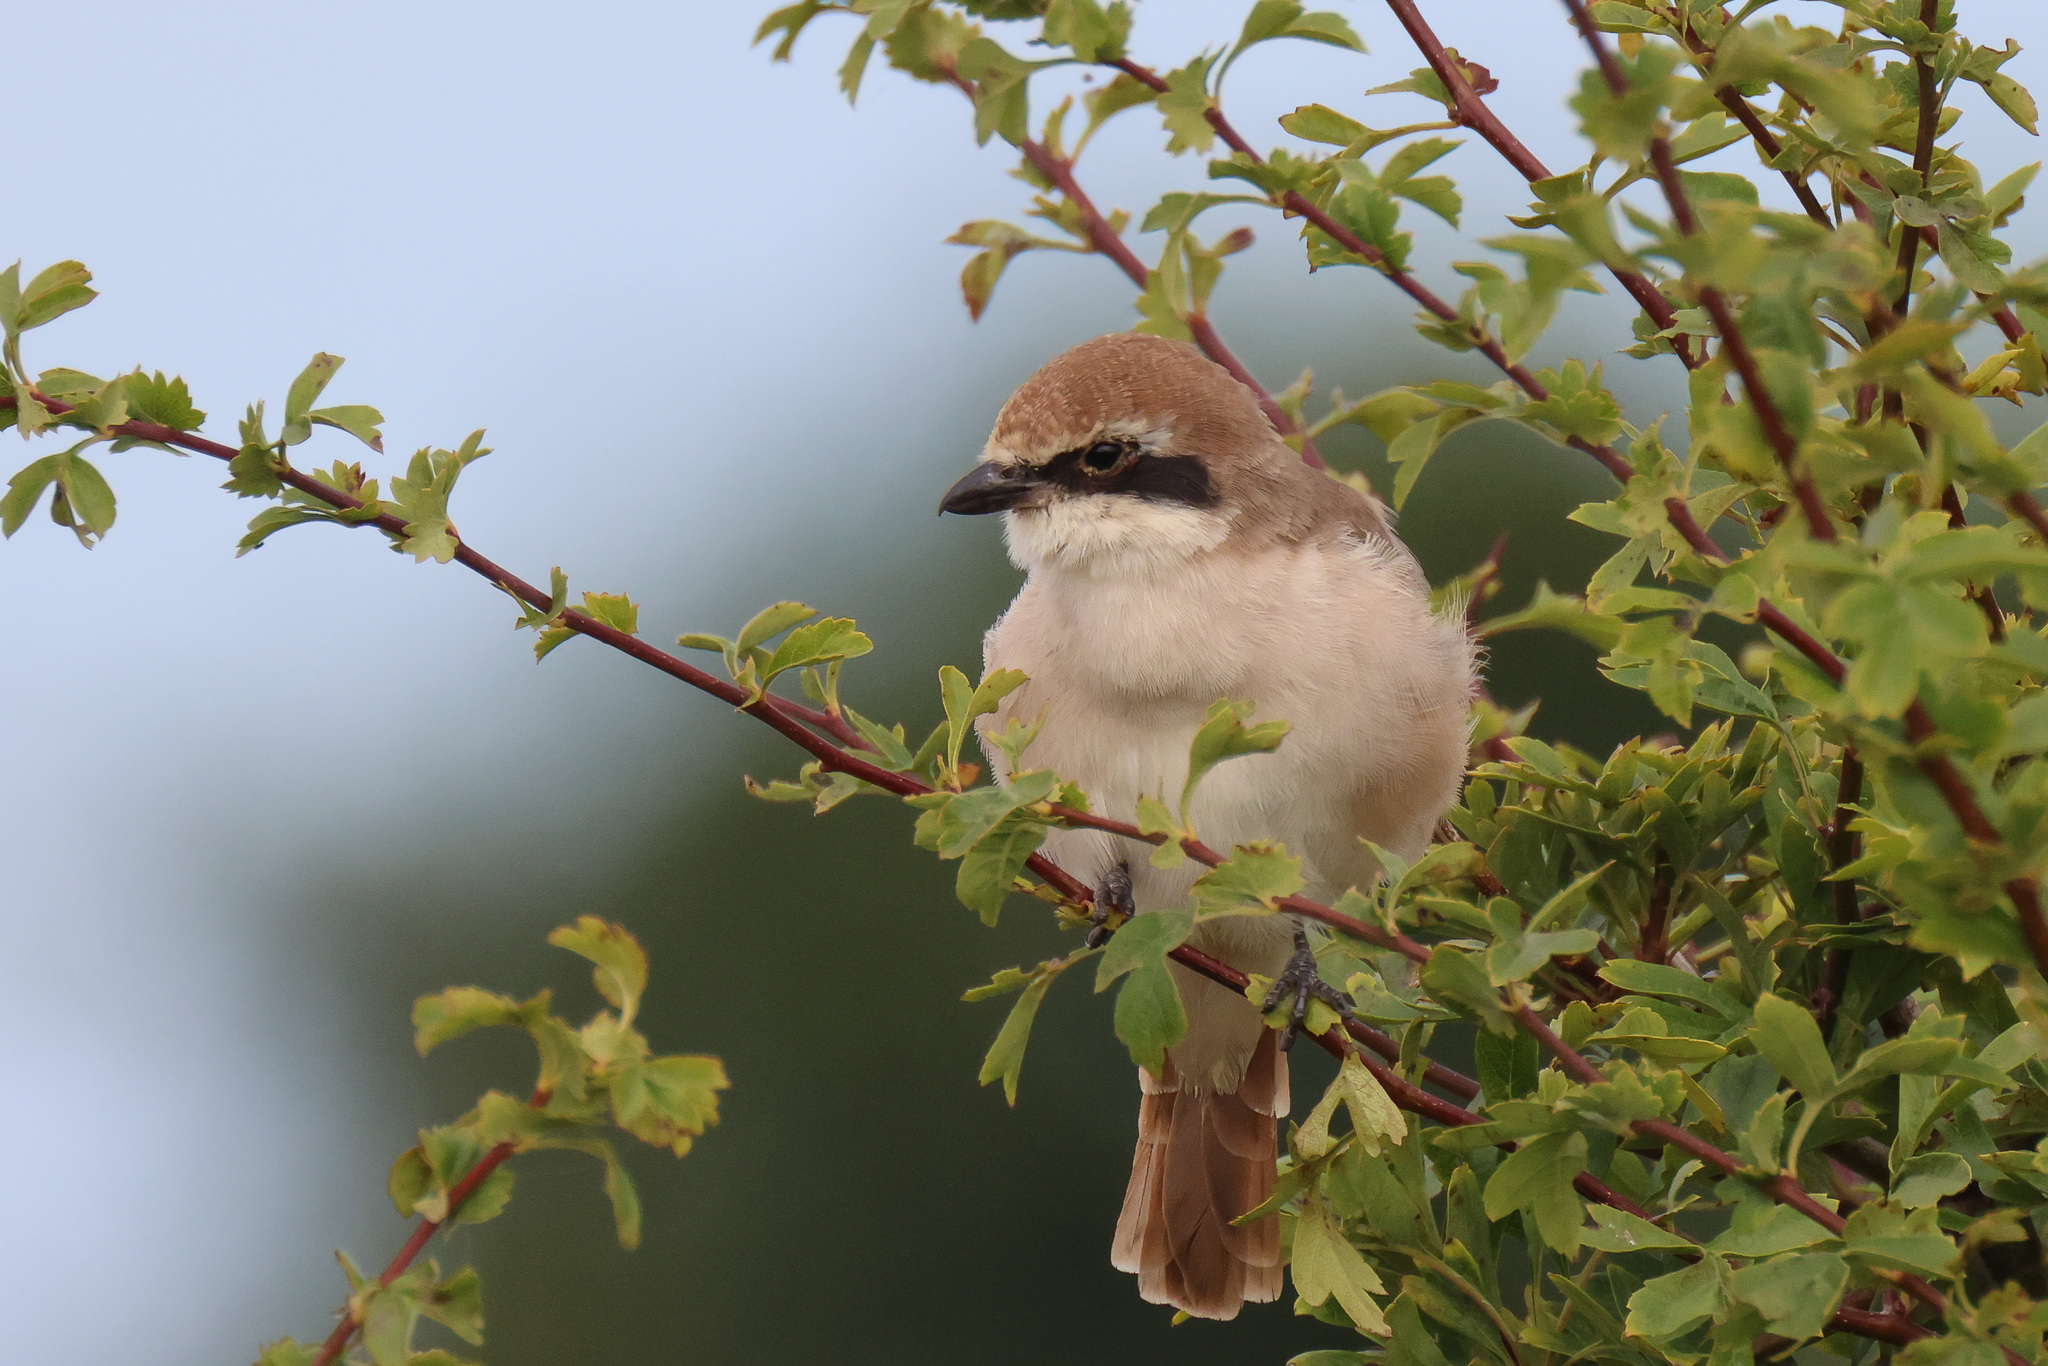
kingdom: Animalia
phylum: Chordata
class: Aves
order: Passeriformes
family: Laniidae
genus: Lanius
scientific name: Lanius phoenicuroides
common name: Red-tailed shrike
